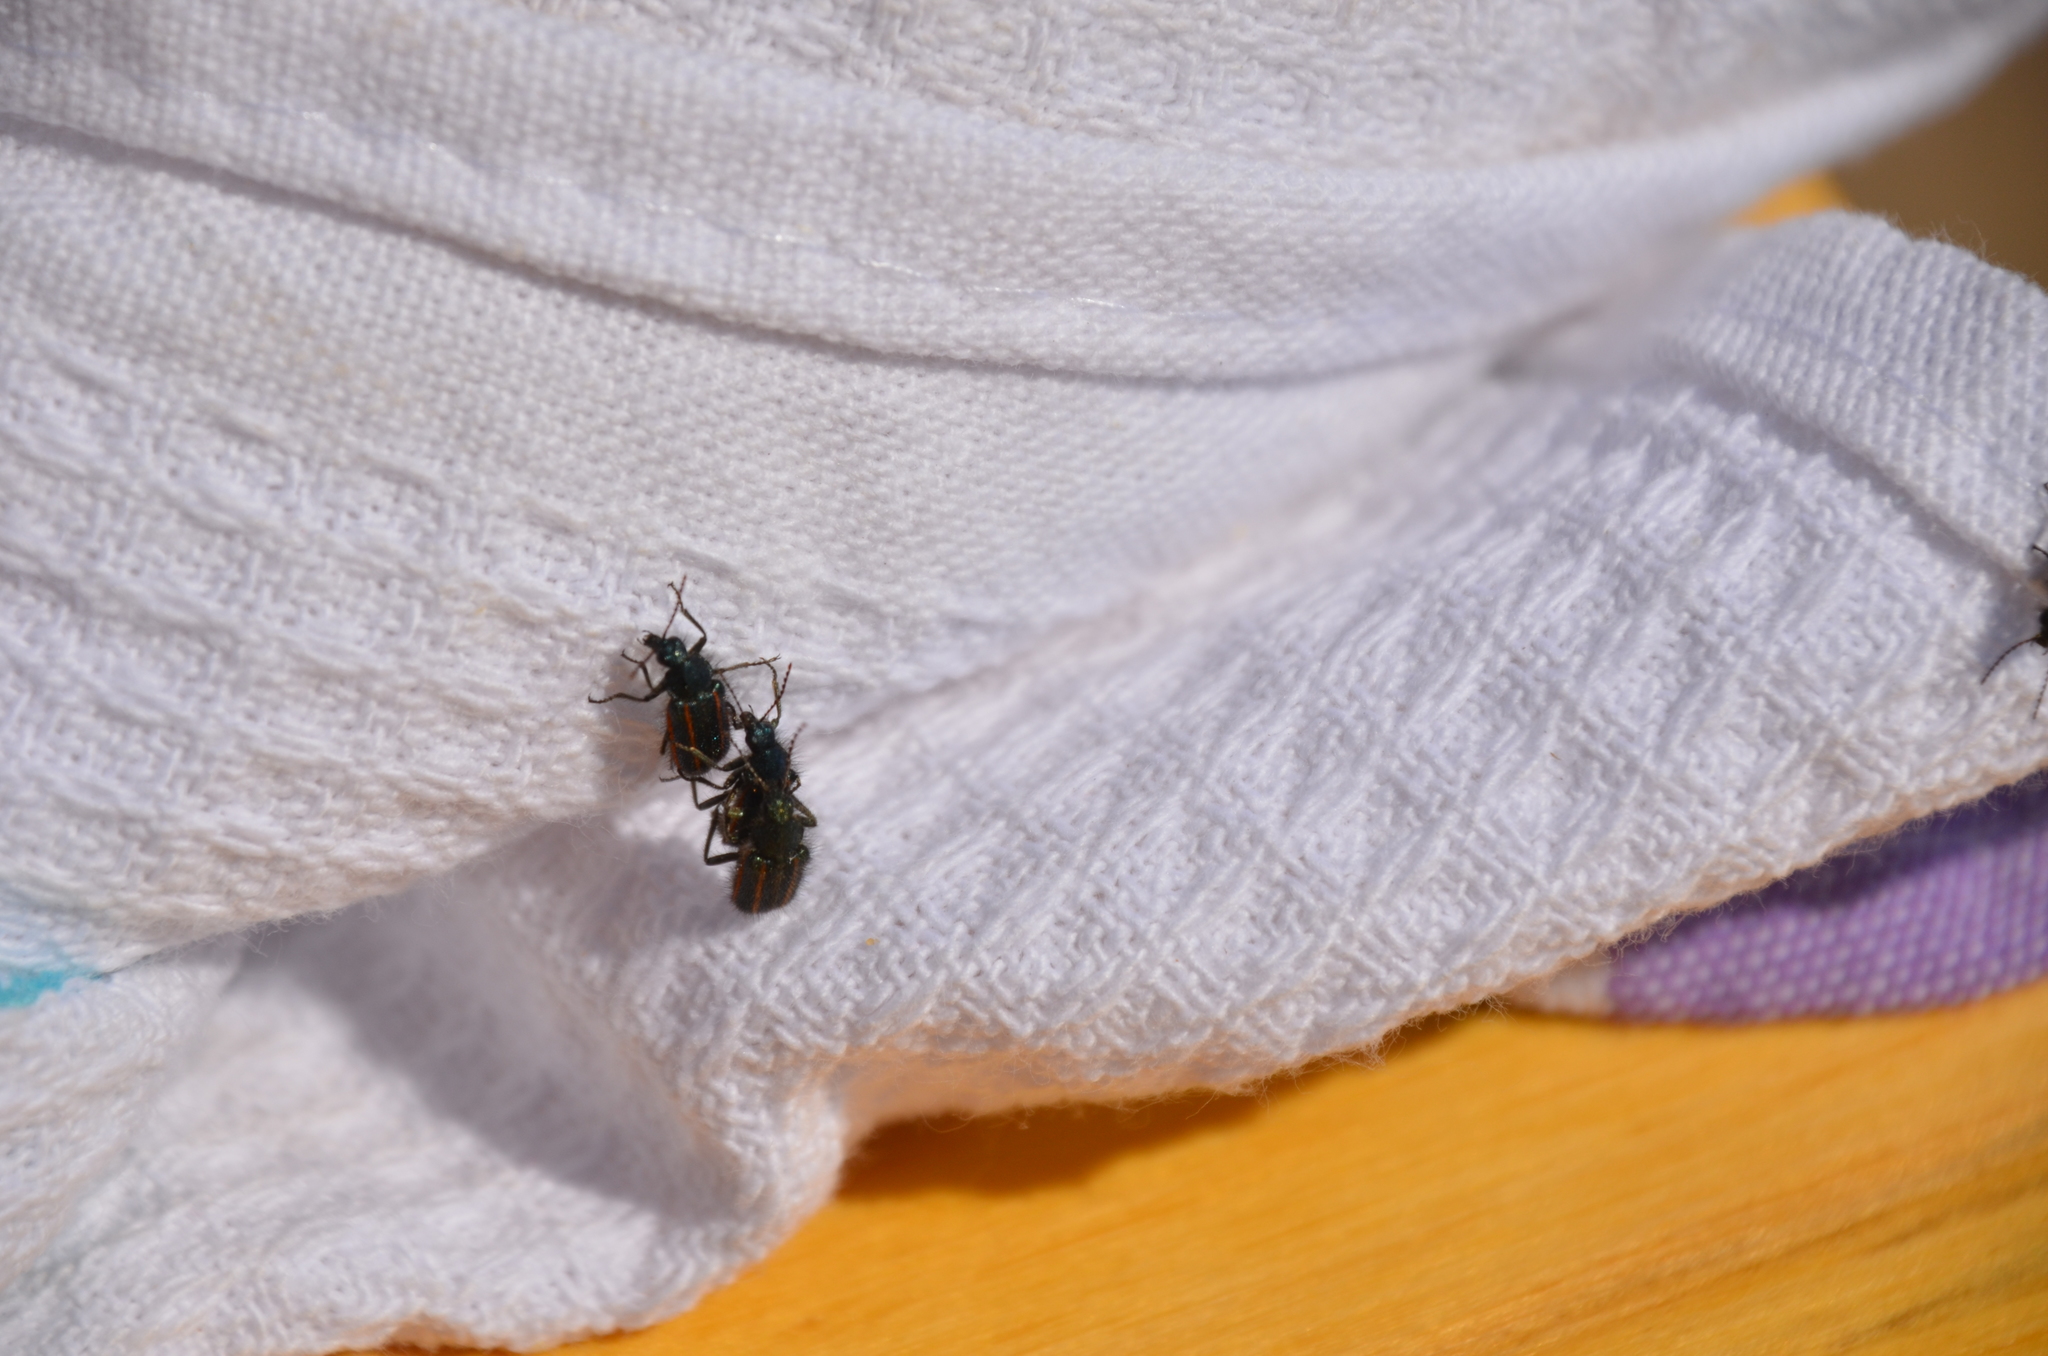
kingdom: Animalia
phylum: Arthropoda
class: Insecta
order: Coleoptera
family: Melyridae
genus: Astylus
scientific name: Astylus
